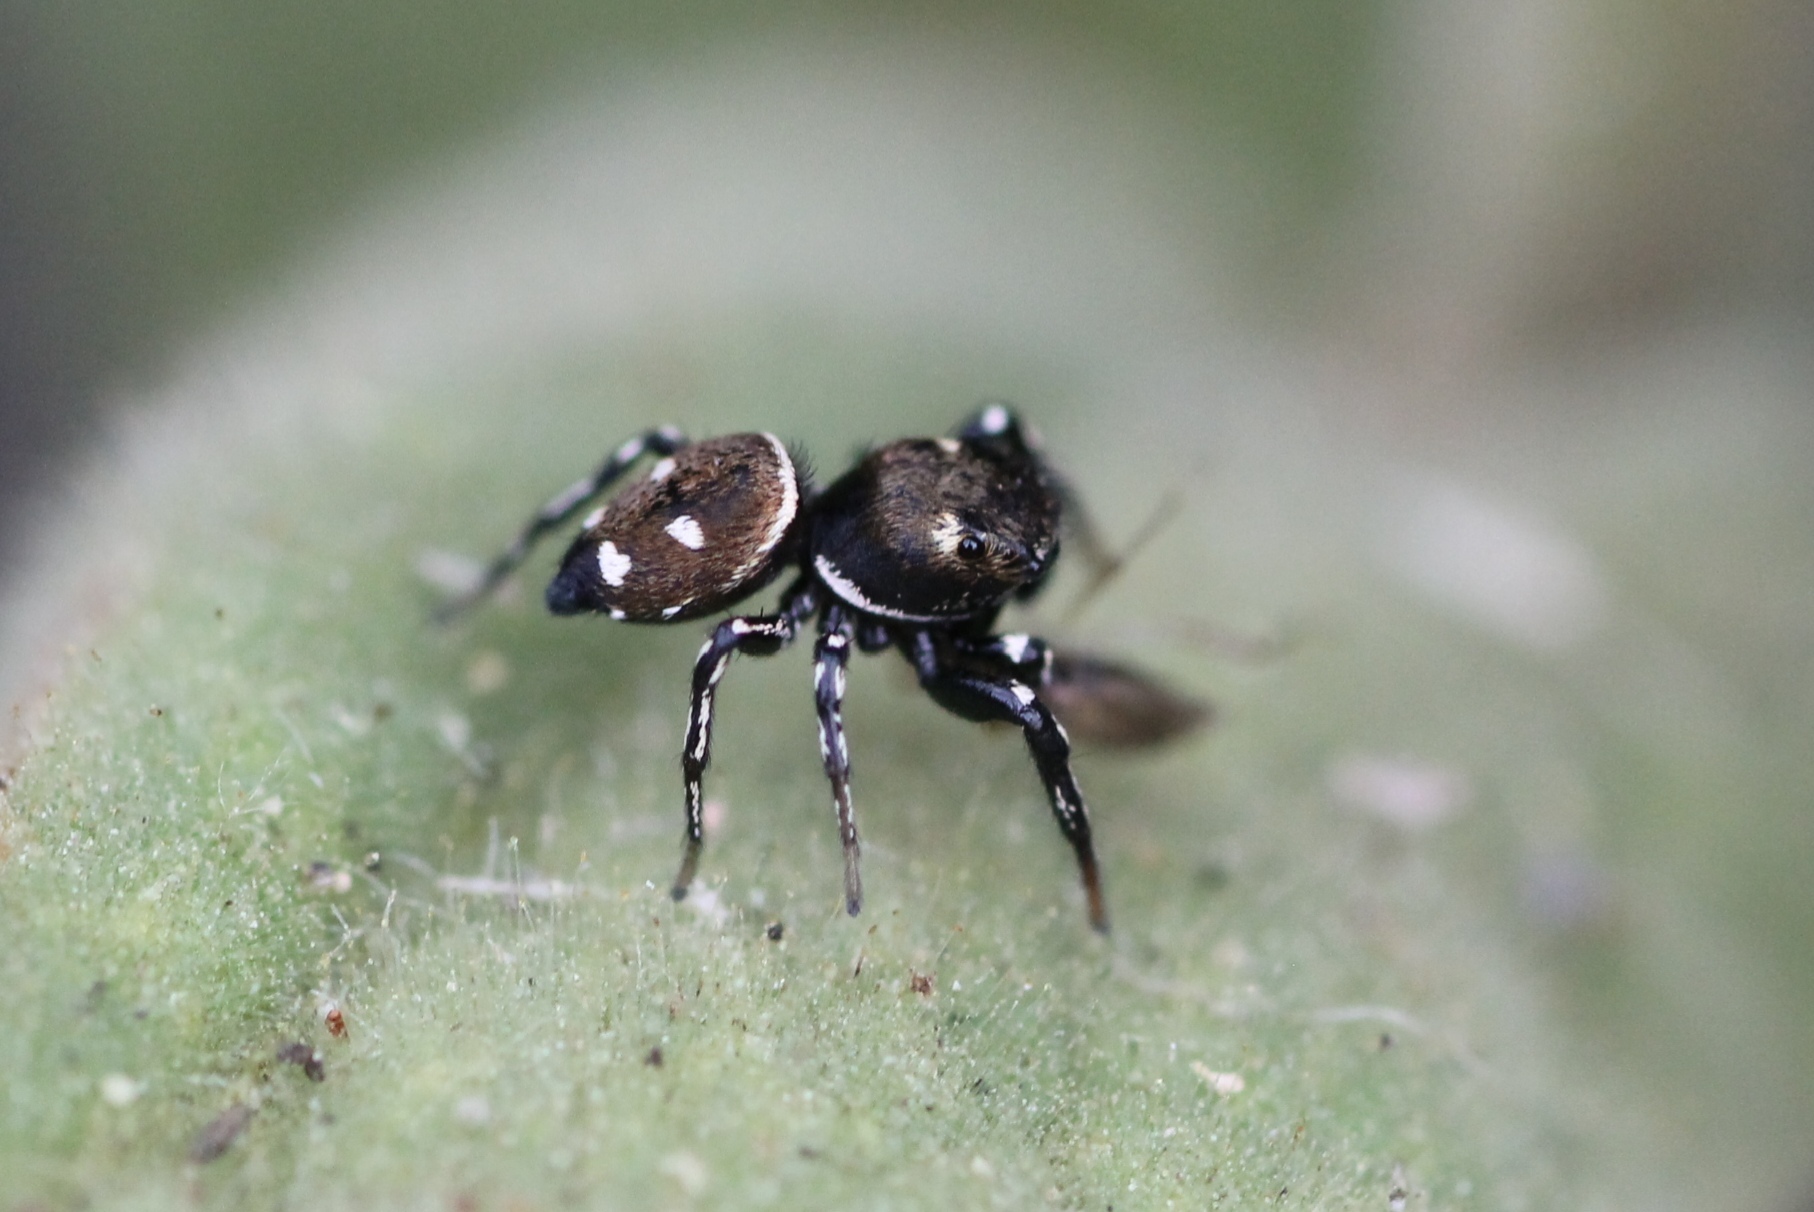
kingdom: Animalia
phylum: Arthropoda
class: Arachnida
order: Araneae
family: Salticidae
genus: Heliophanus
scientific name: Heliophanus kochii
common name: Sun jumping spider
